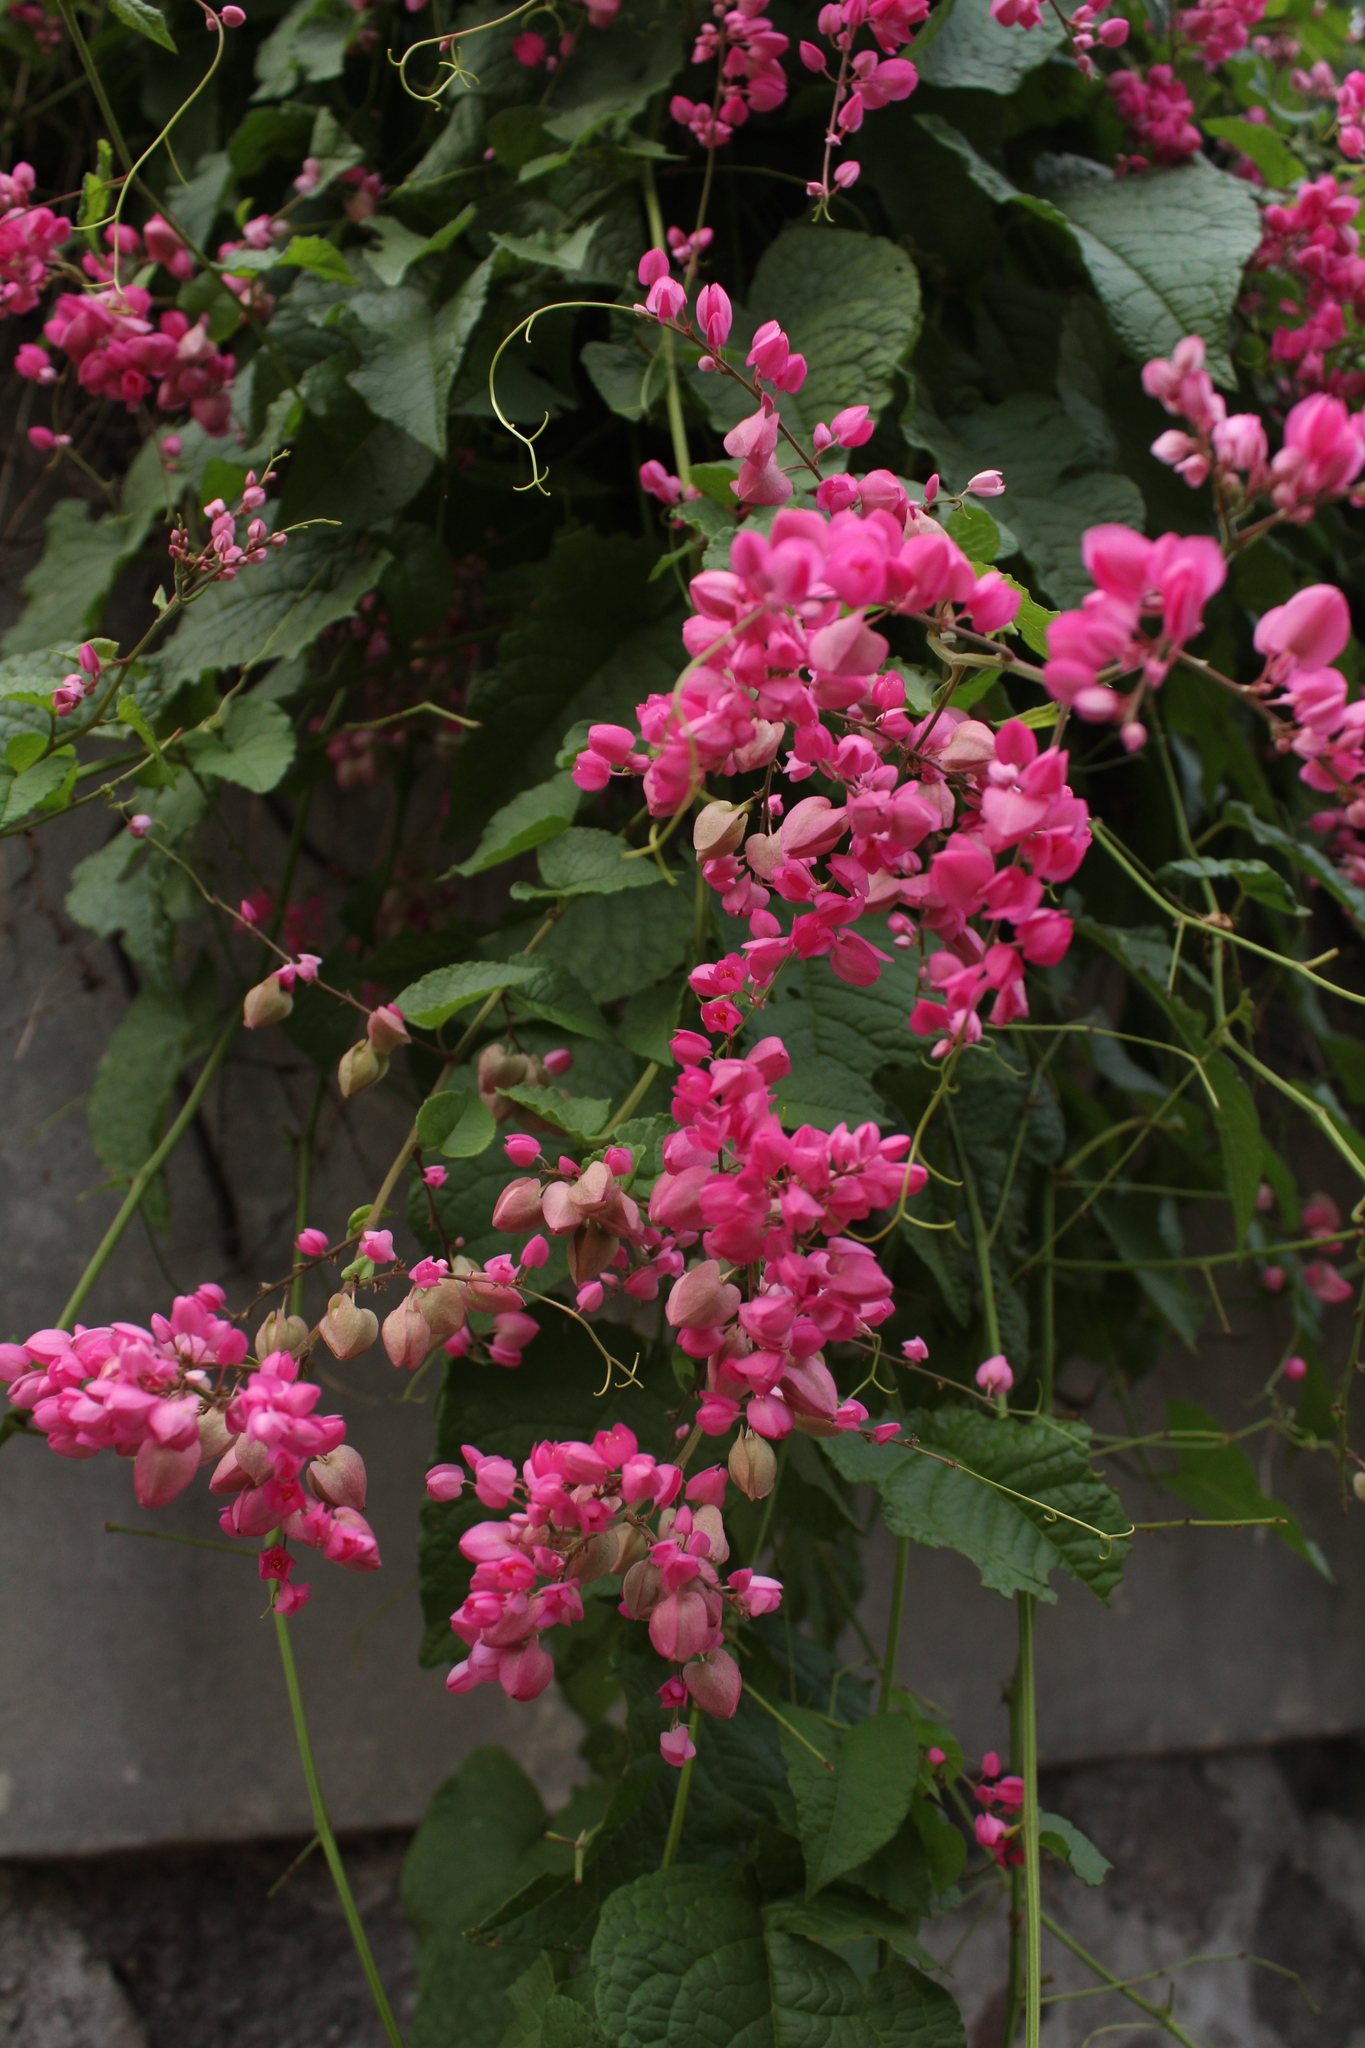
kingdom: Plantae
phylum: Tracheophyta
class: Magnoliopsida
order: Caryophyllales
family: Polygonaceae
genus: Antigonon
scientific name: Antigonon leptopus
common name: Coral vine
